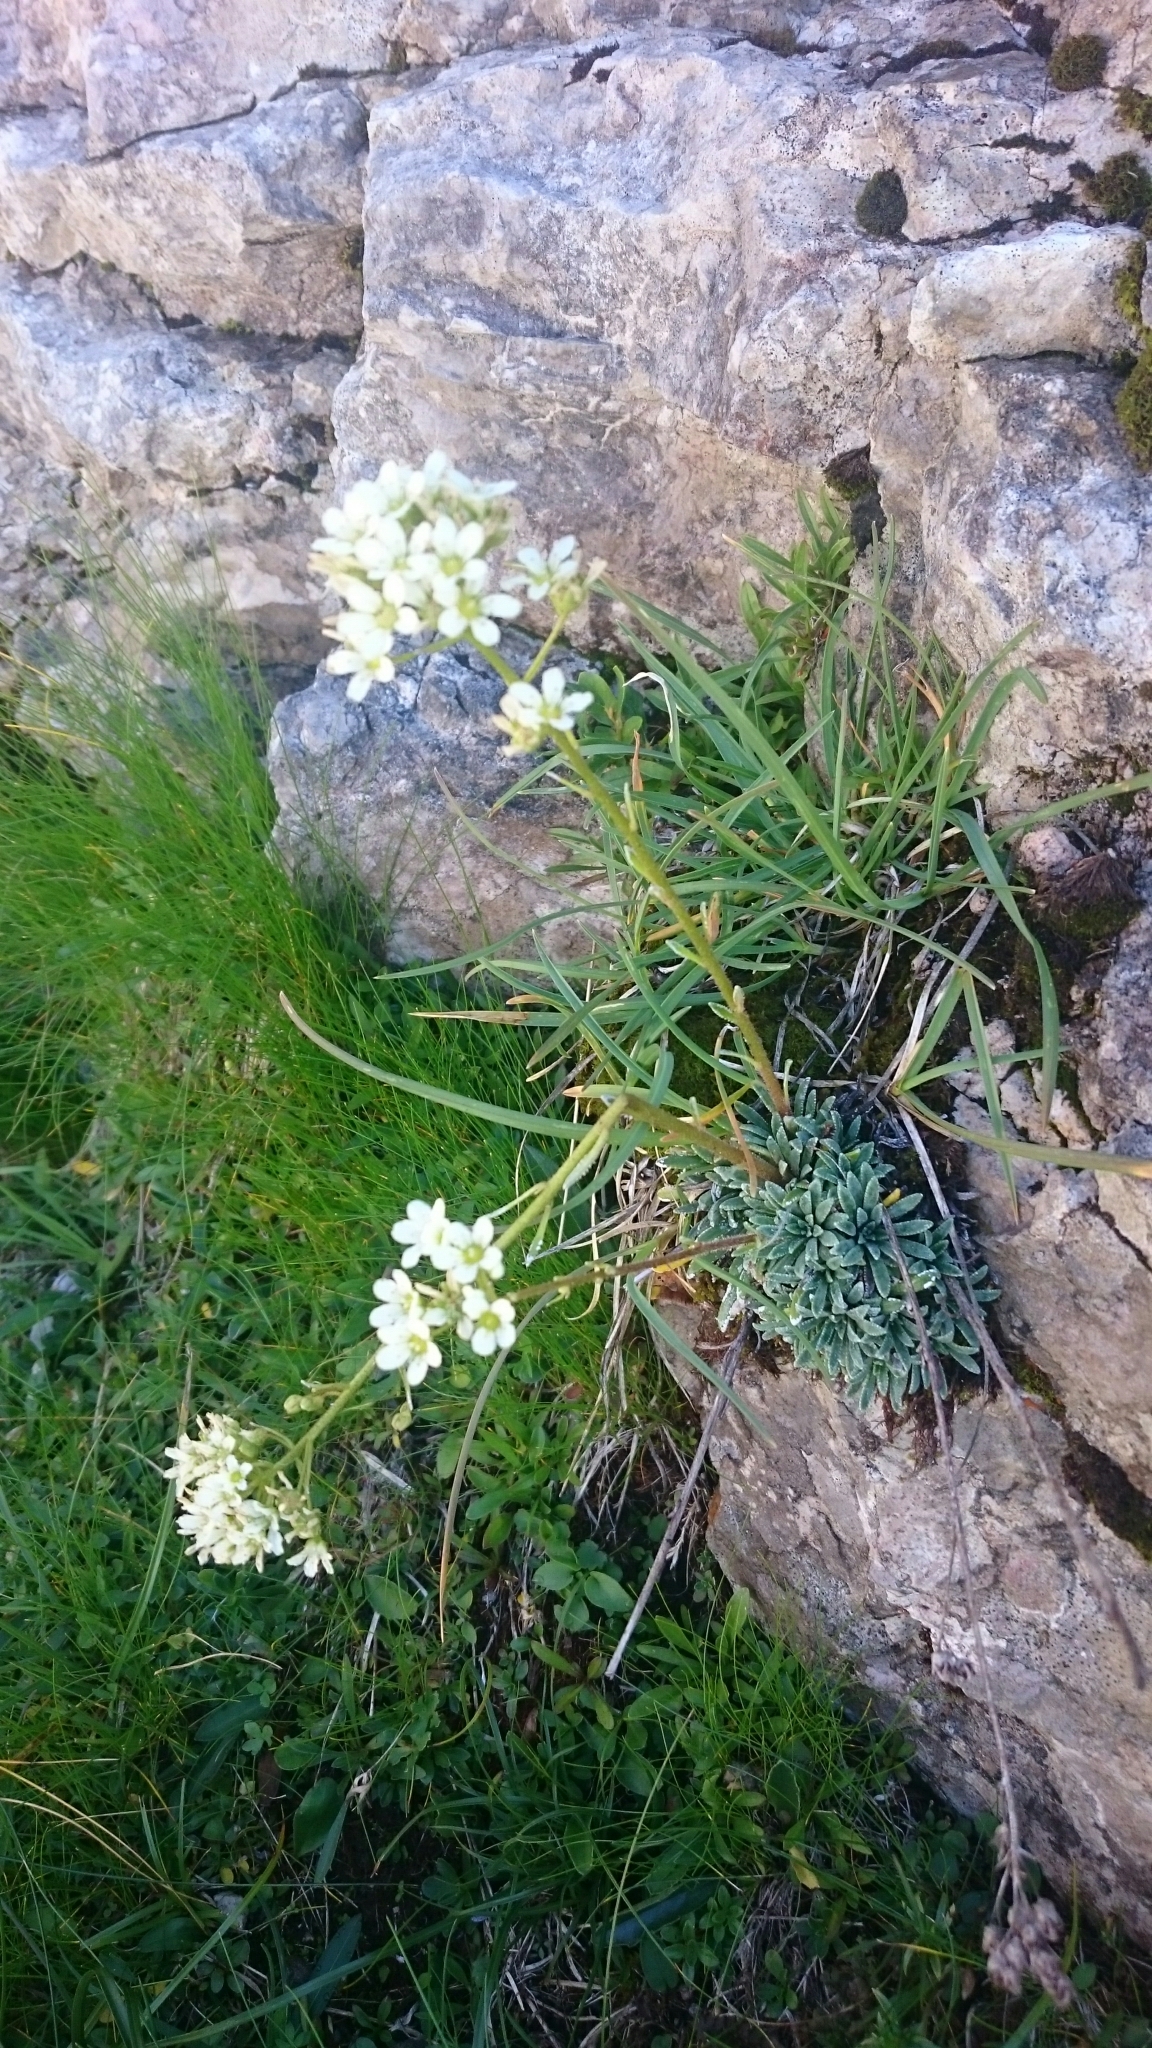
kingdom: Plantae
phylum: Tracheophyta
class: Magnoliopsida
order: Saxifragales
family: Saxifragaceae
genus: Saxifraga
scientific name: Saxifraga crustata
